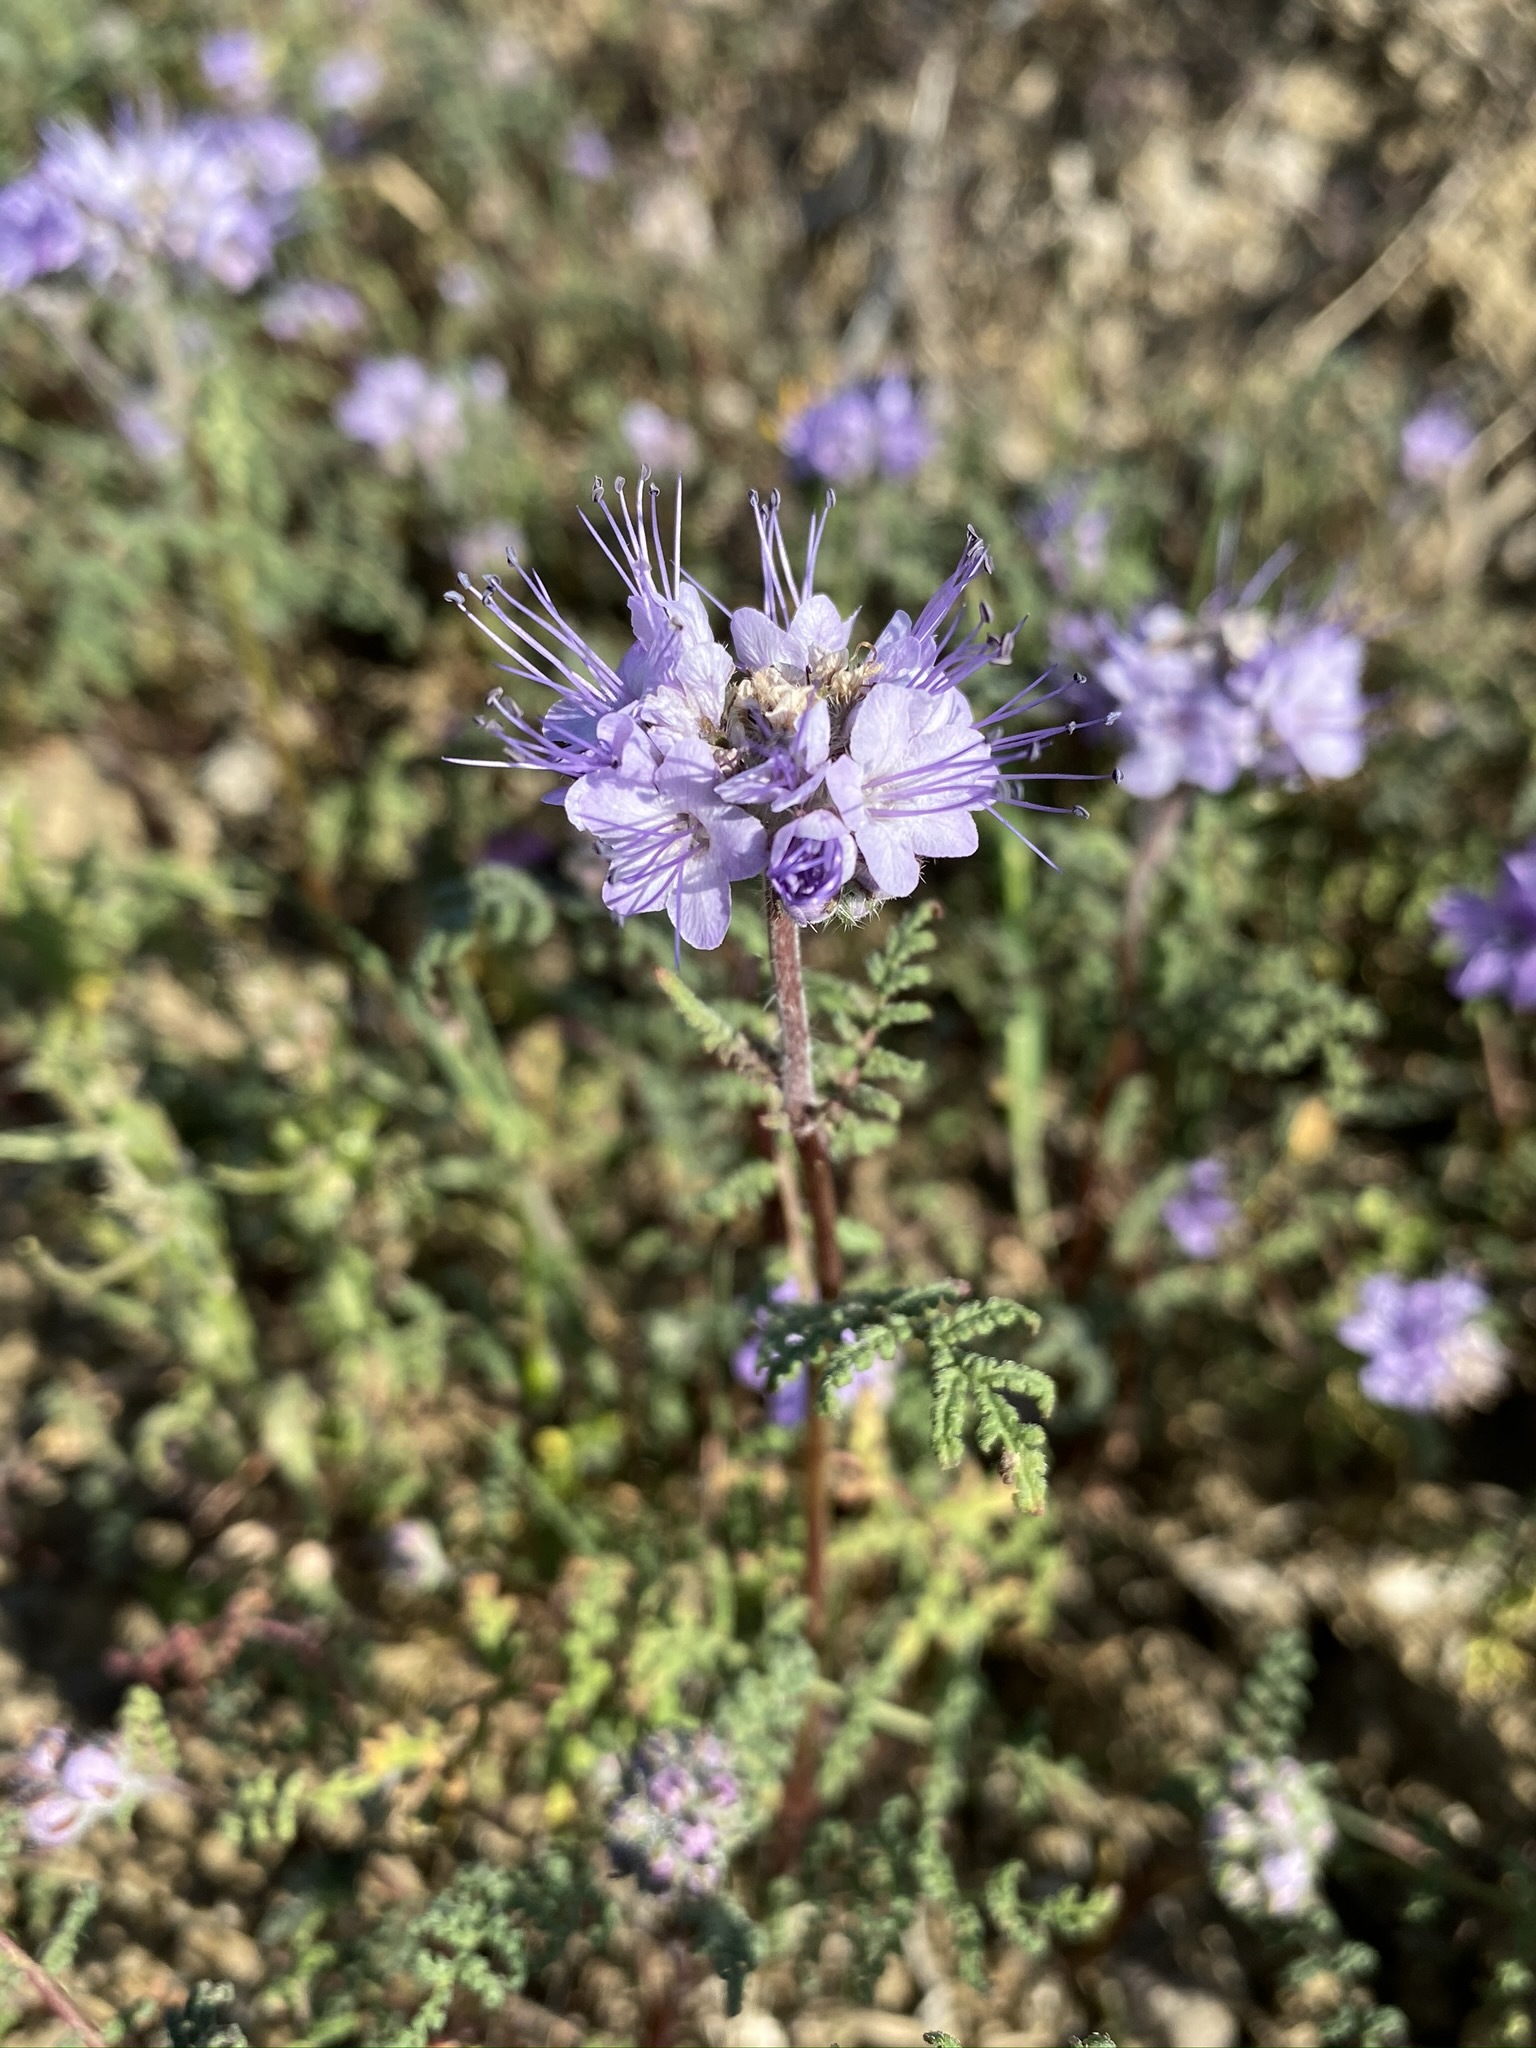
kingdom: Plantae
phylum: Tracheophyta
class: Magnoliopsida
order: Boraginales
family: Hydrophyllaceae
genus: Phacelia
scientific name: Phacelia tanacetifolia
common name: Phacelia
